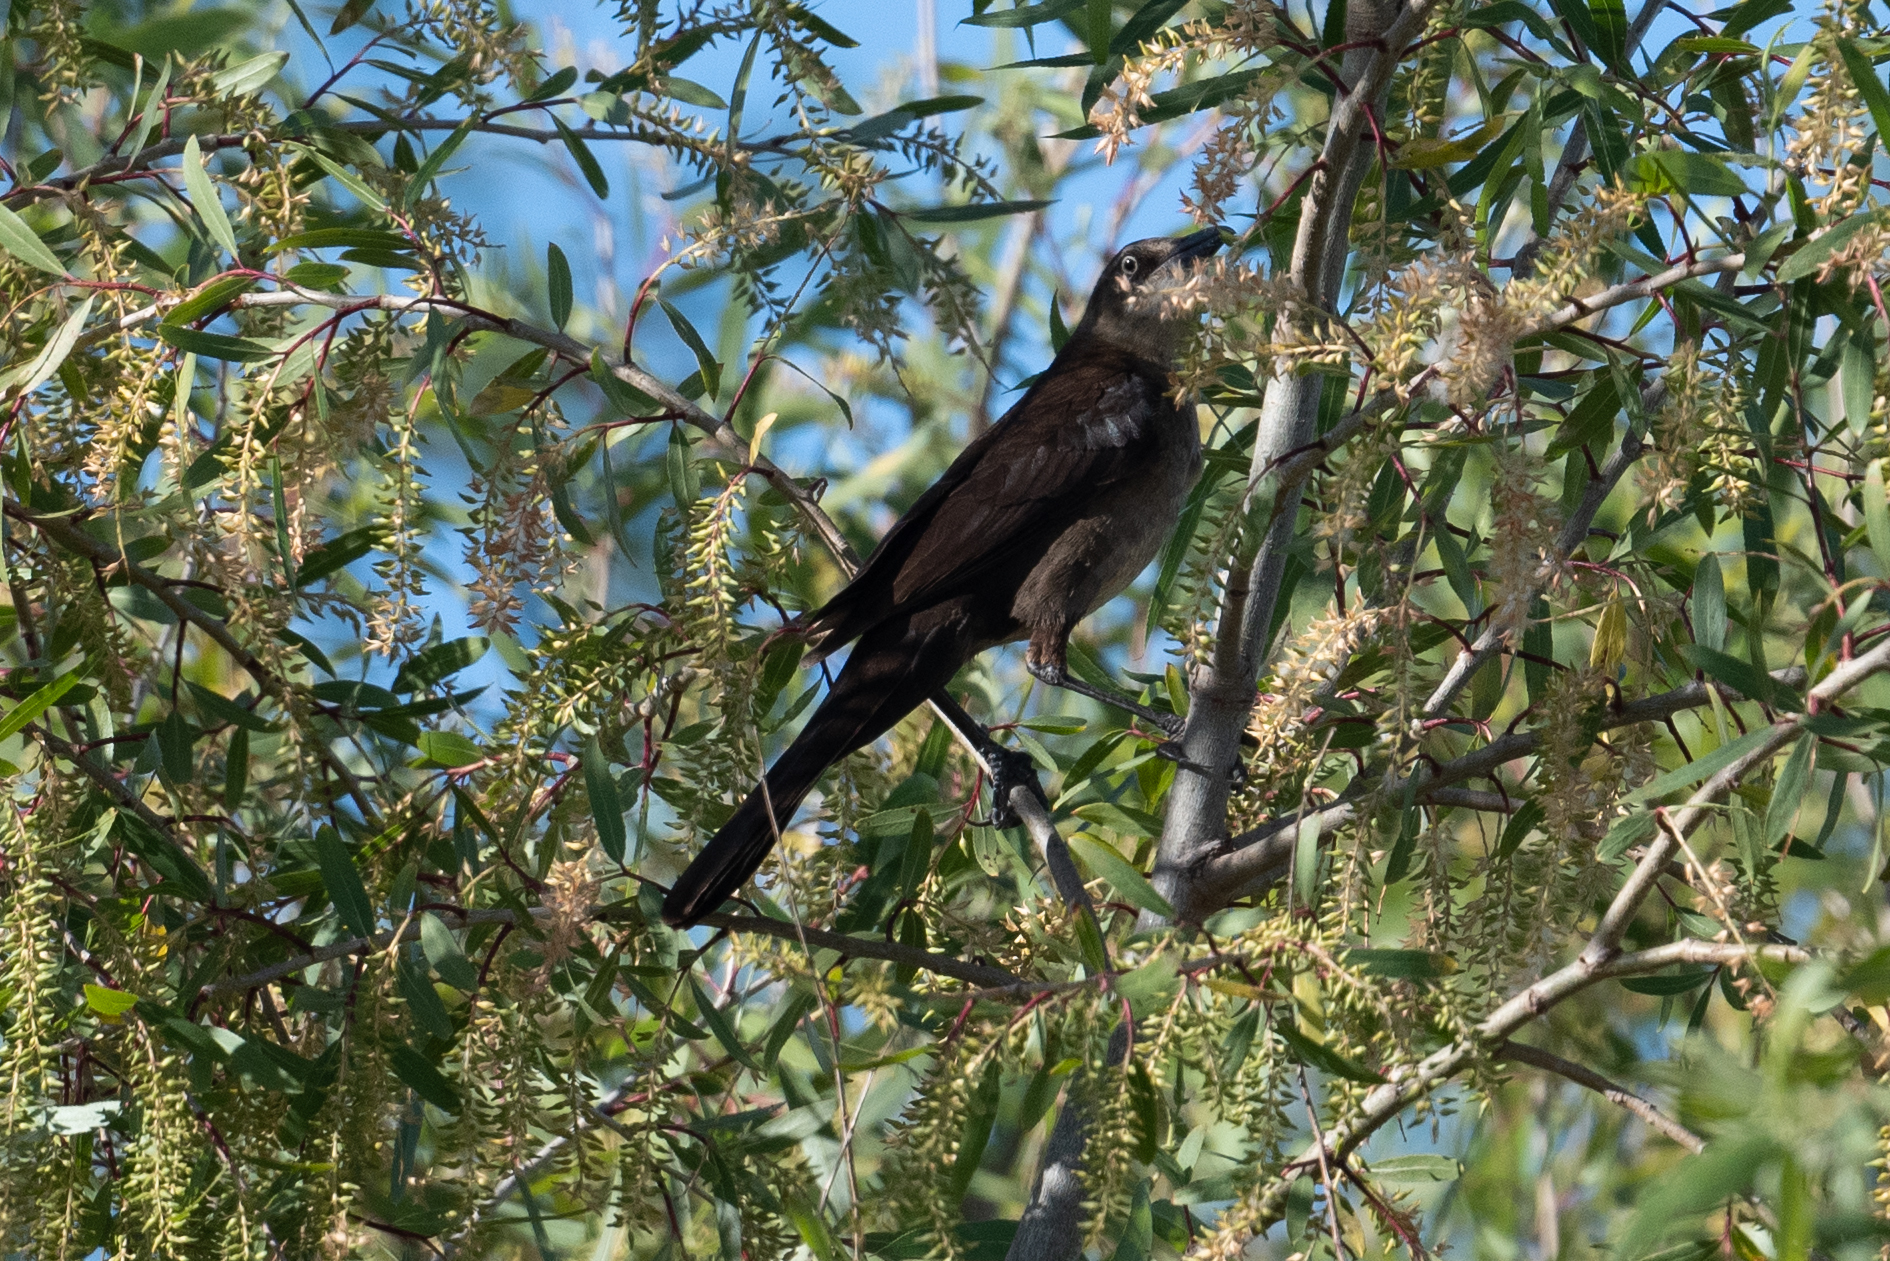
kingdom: Animalia
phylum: Chordata
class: Aves
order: Passeriformes
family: Icteridae
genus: Quiscalus
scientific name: Quiscalus mexicanus
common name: Great-tailed grackle
